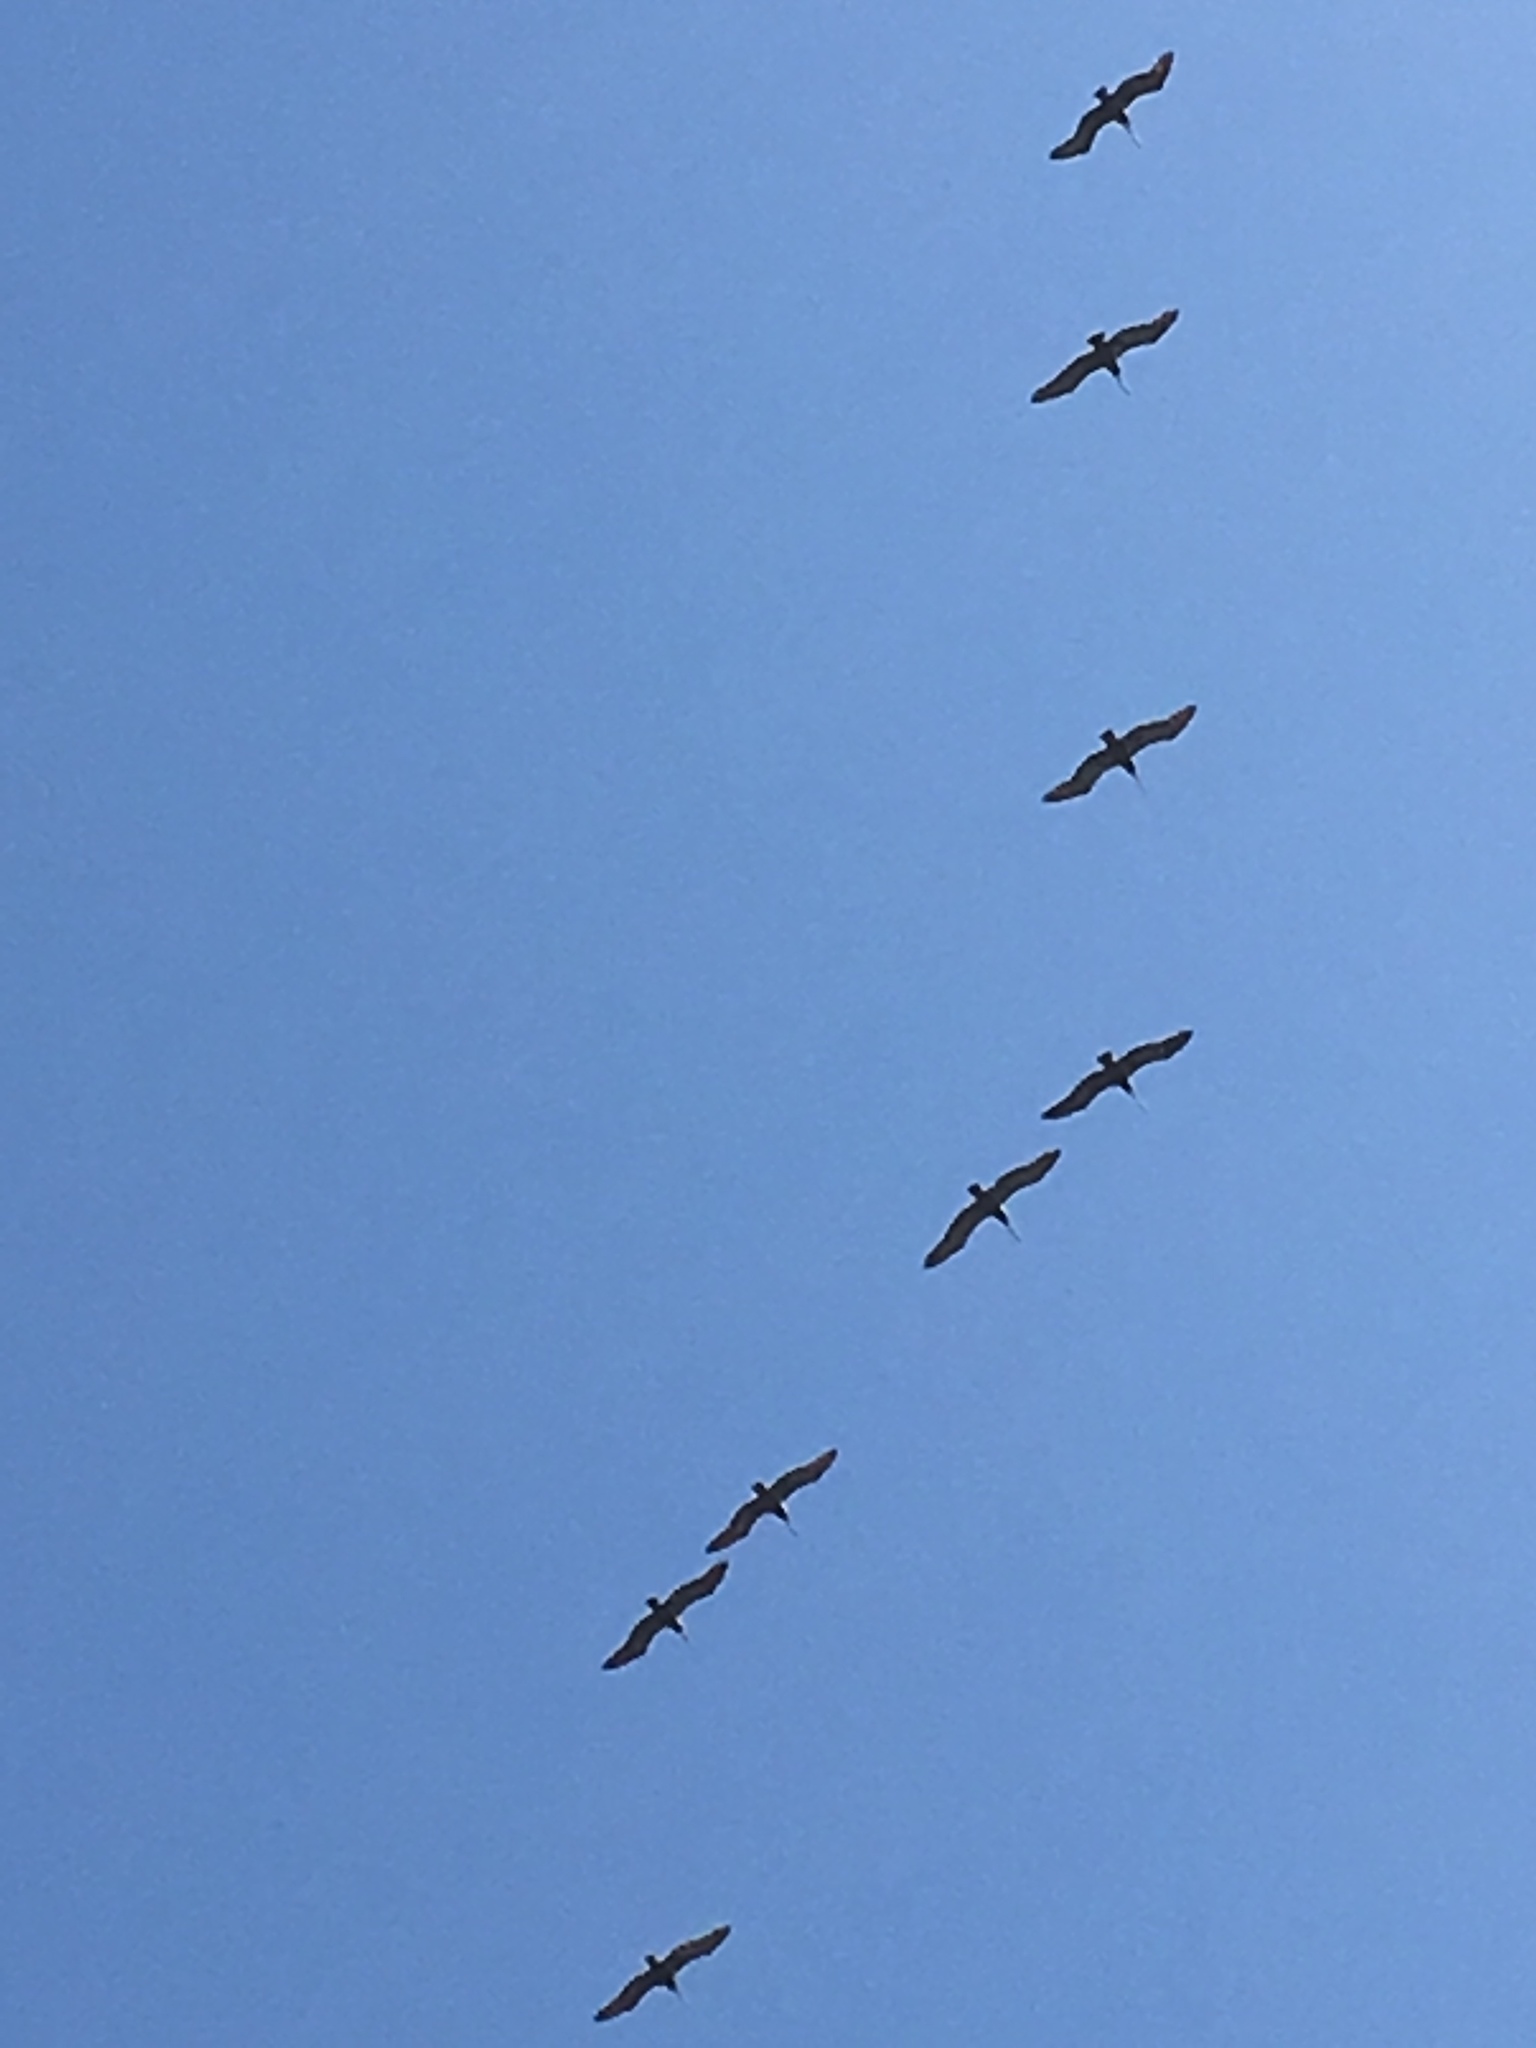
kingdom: Animalia
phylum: Chordata
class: Aves
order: Pelecaniformes
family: Pelecanidae
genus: Pelecanus
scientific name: Pelecanus occidentalis
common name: Brown pelican
